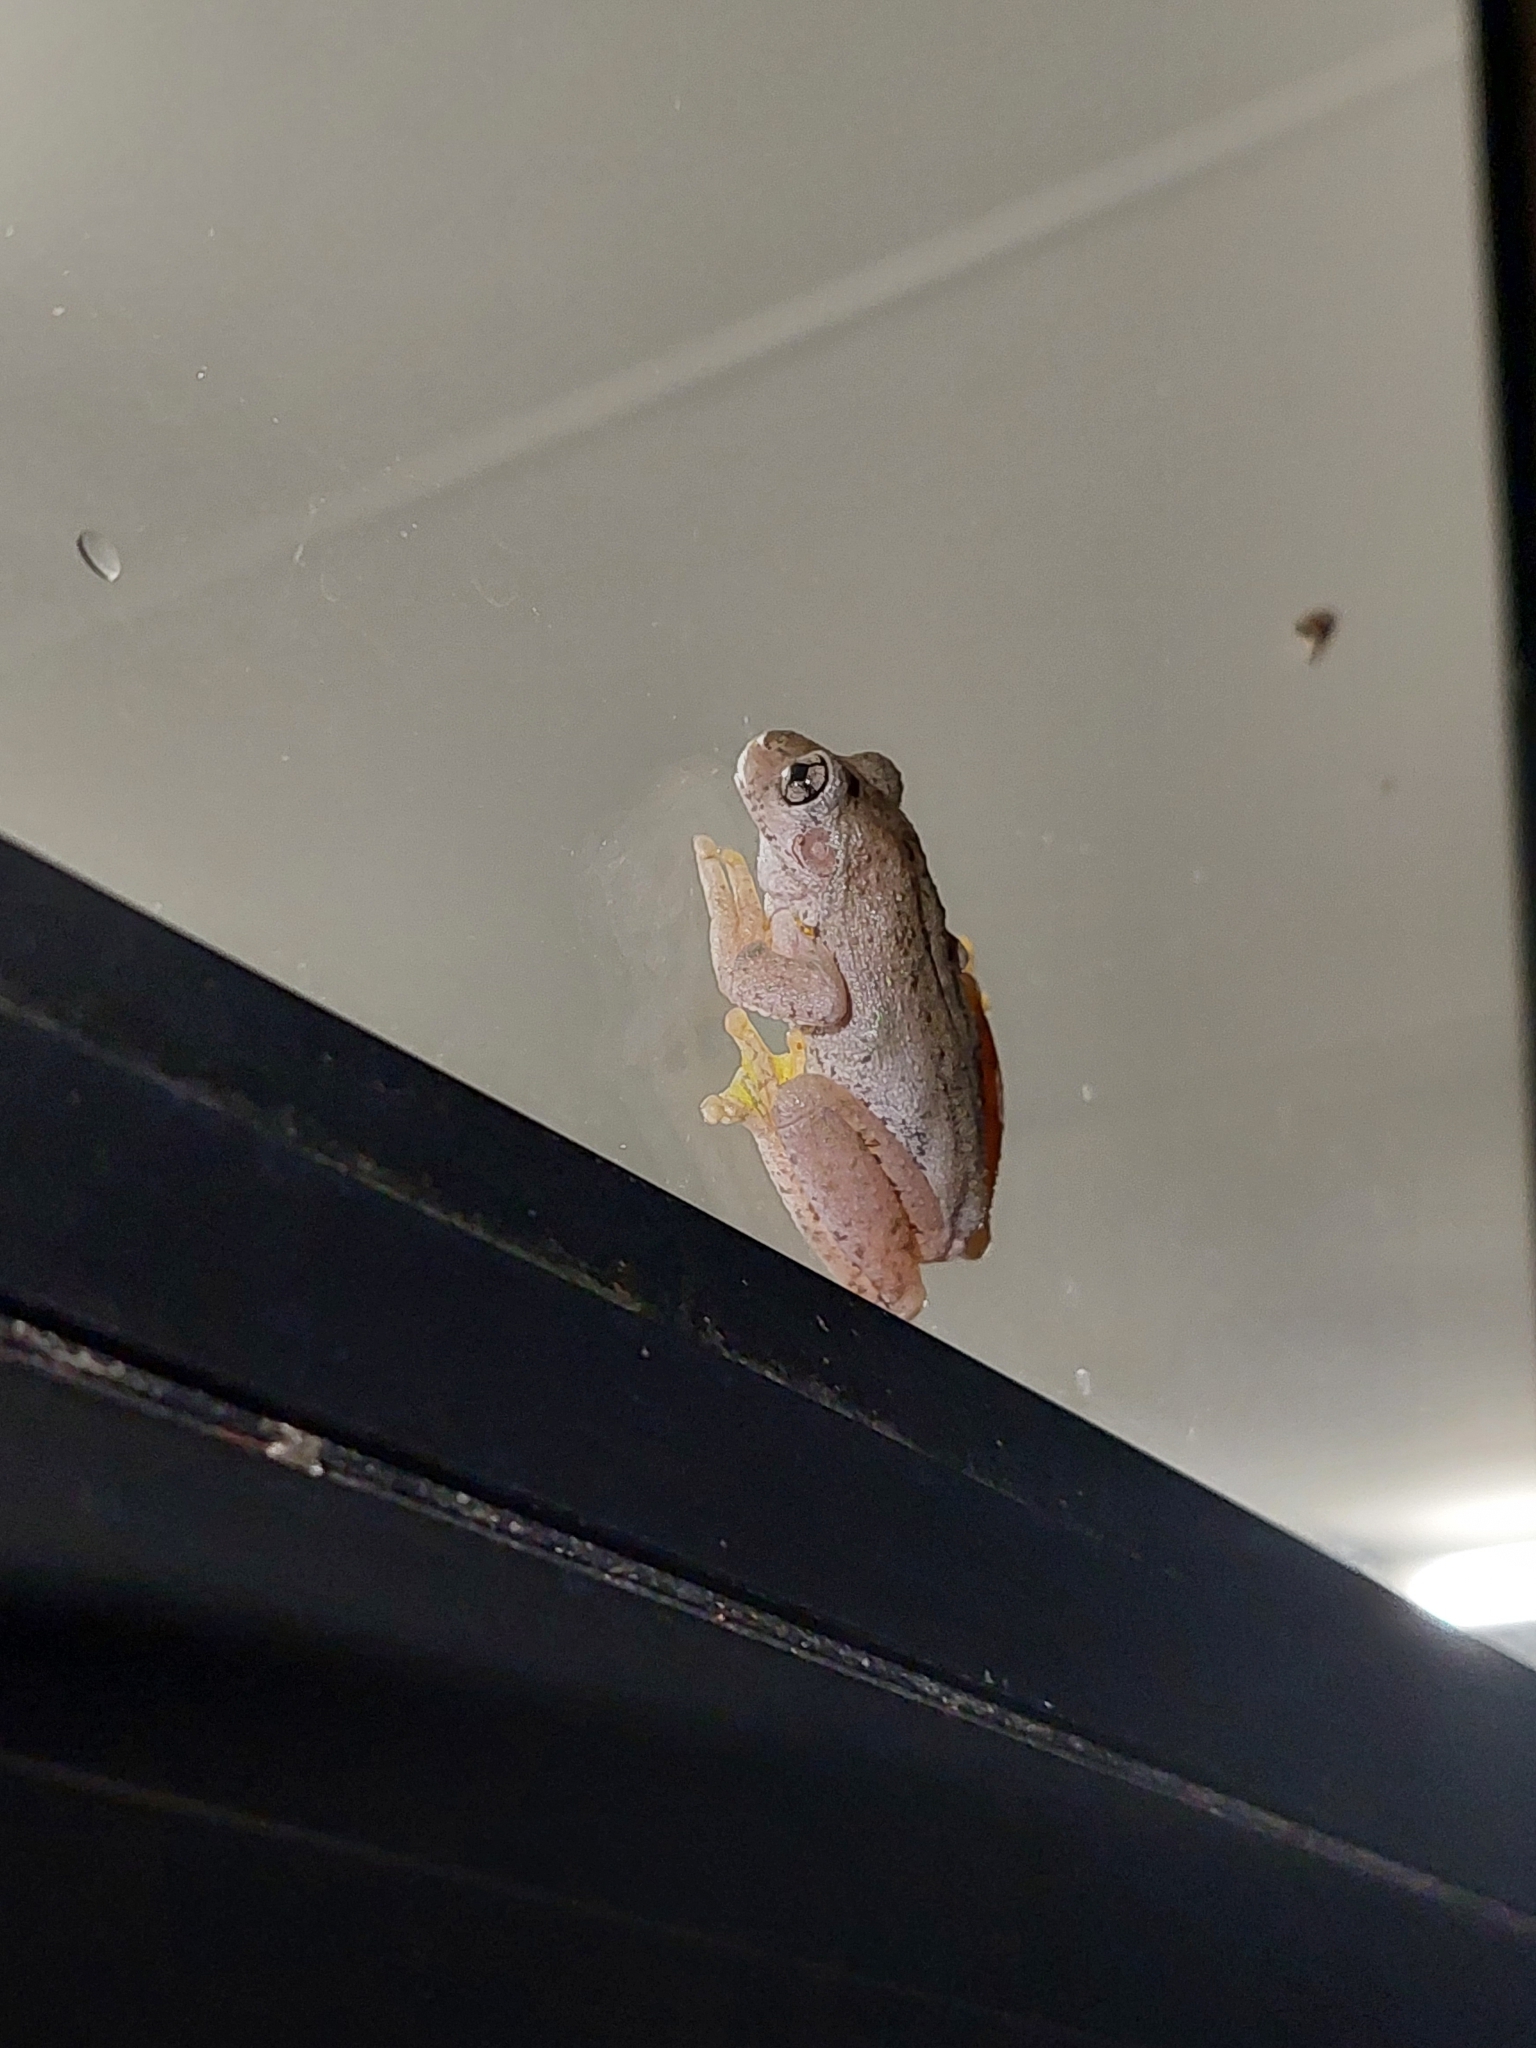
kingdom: Animalia
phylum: Chordata
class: Amphibia
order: Anura
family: Pelodryadidae
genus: Litoria
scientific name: Litoria peronii
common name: Emerald spotted treefrog
